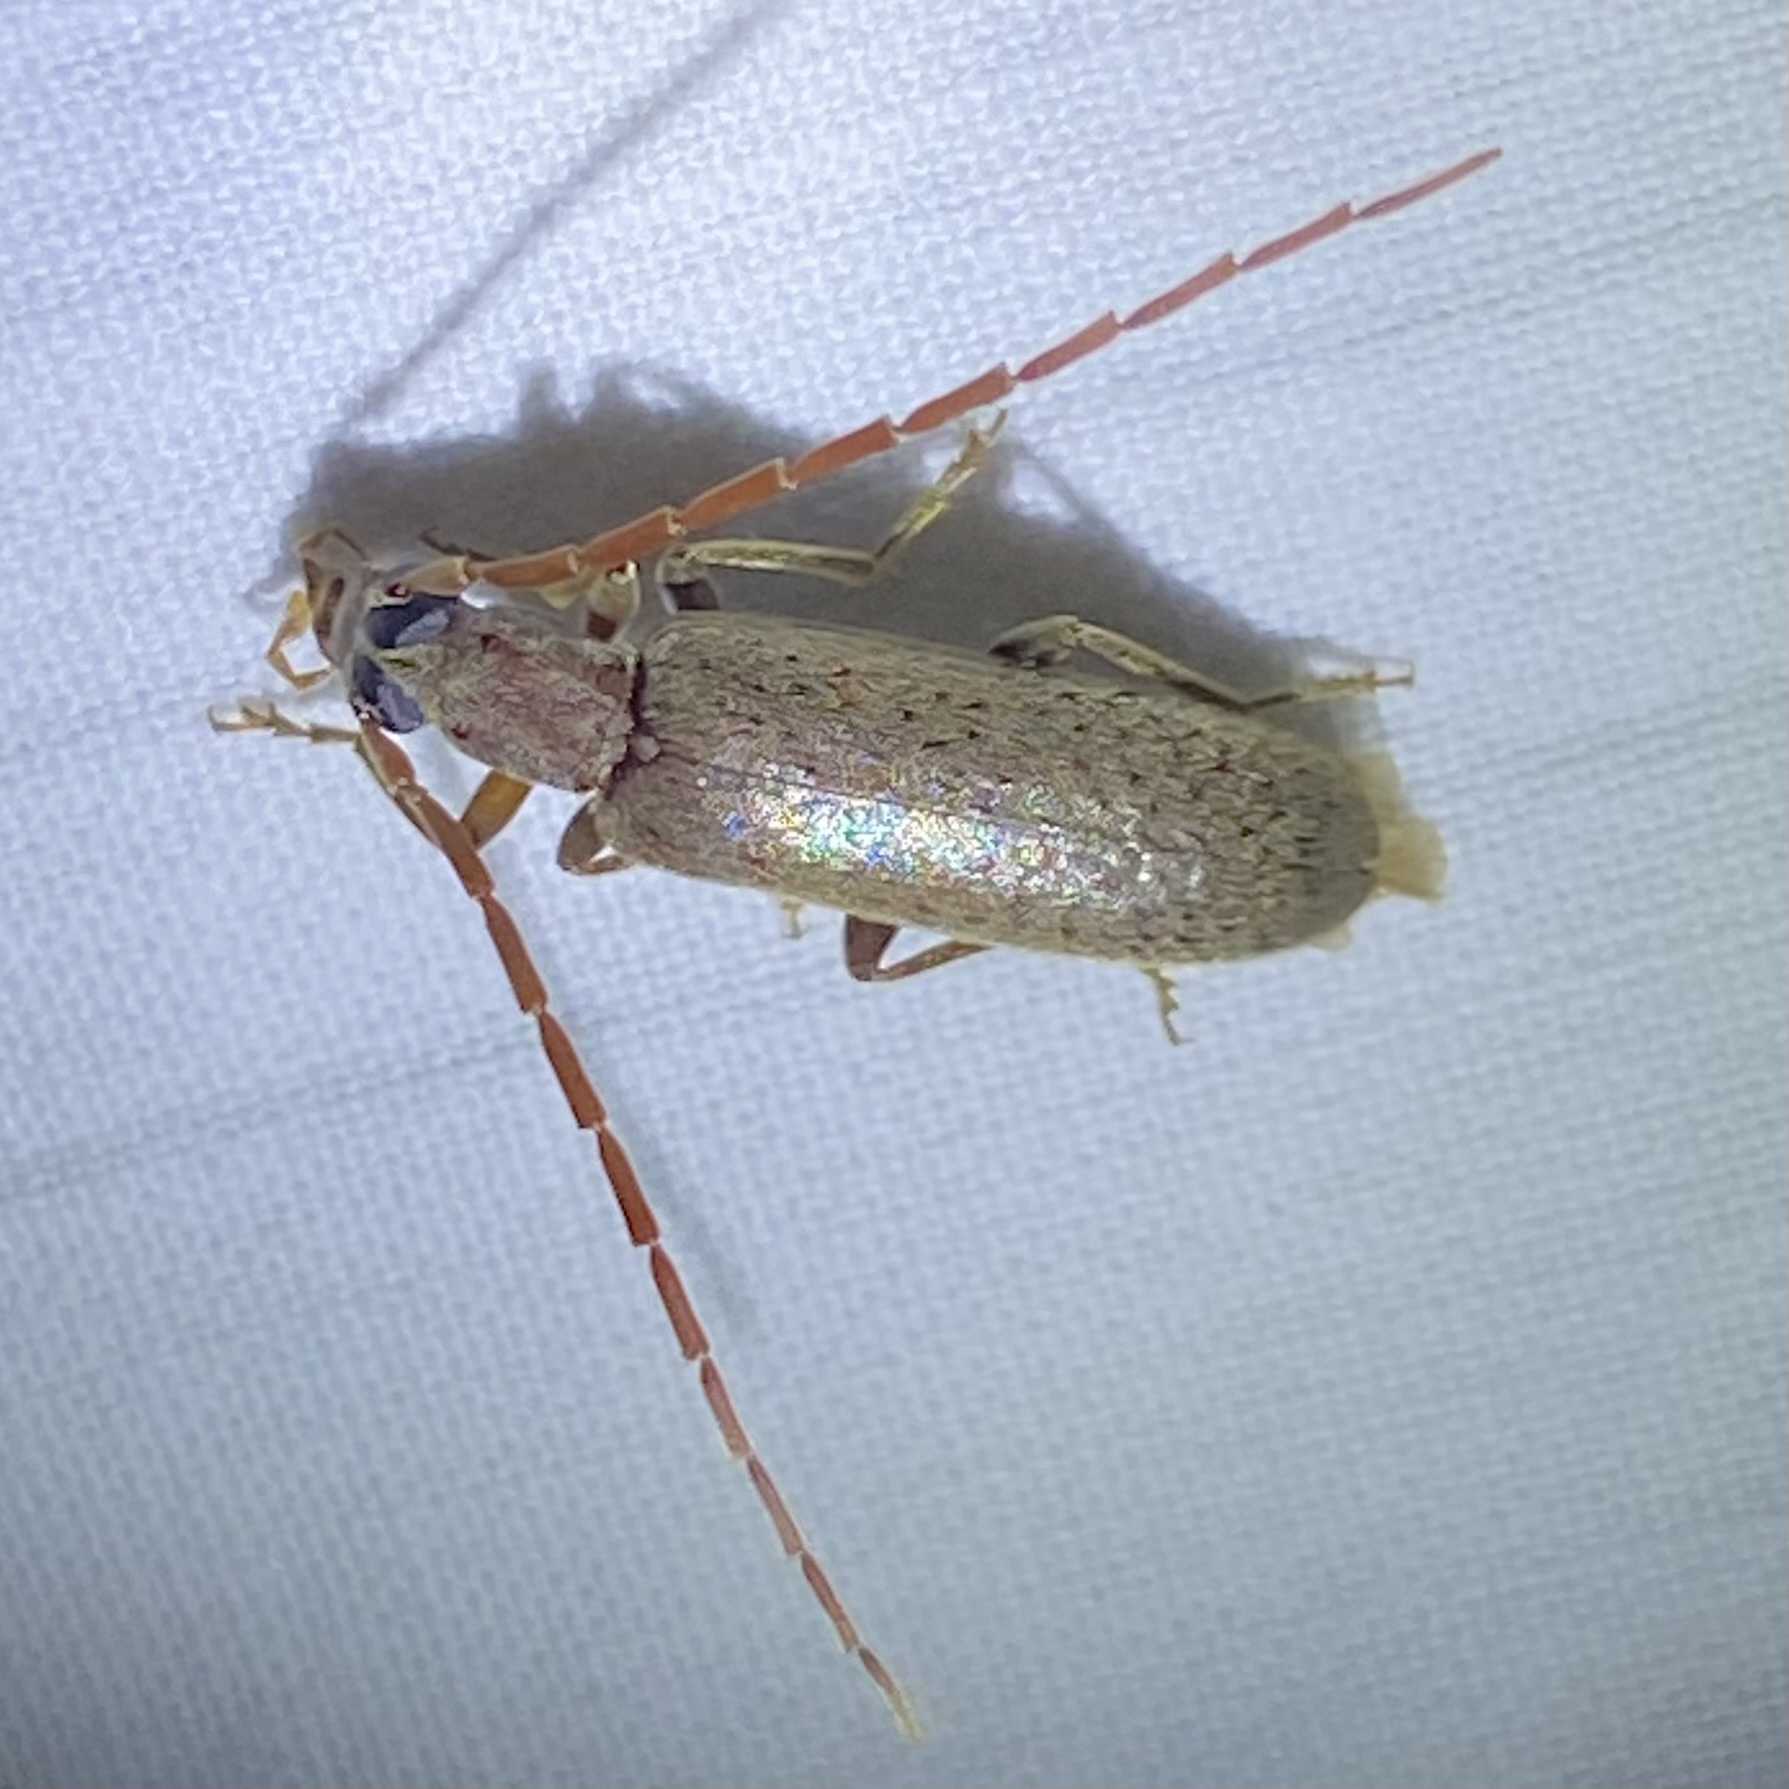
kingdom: Animalia
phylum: Arthropoda
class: Insecta
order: Coleoptera
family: Oedemeridae
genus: Sparedrus
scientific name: Sparedrus aspersus
